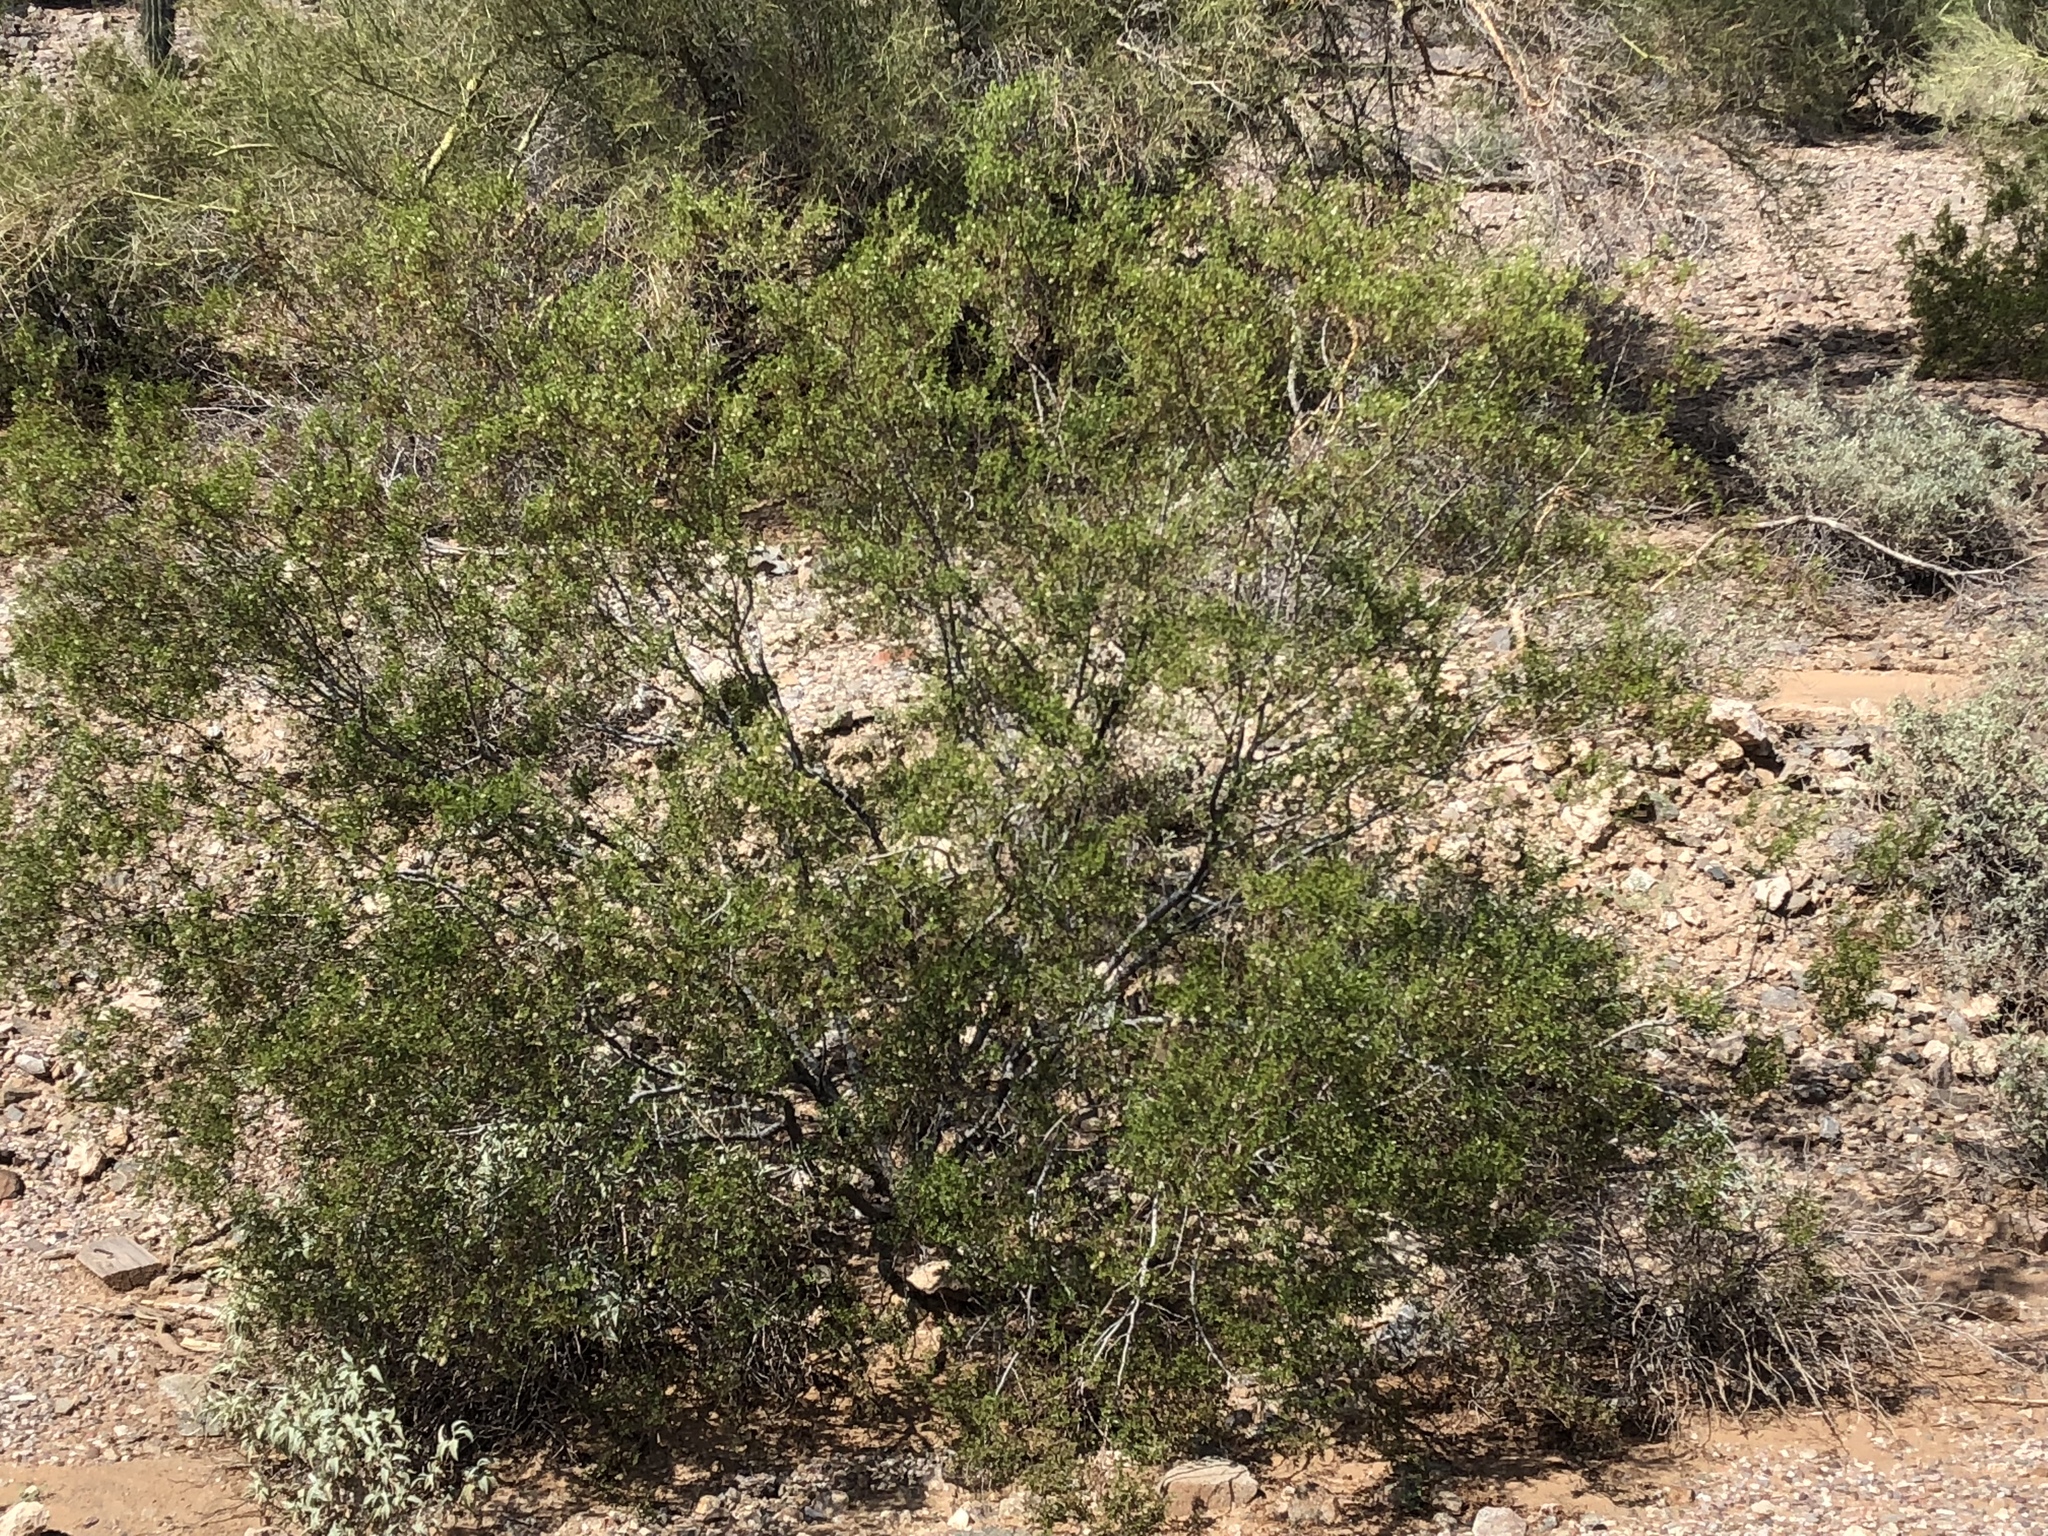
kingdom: Plantae
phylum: Tracheophyta
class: Magnoliopsida
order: Zygophyllales
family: Zygophyllaceae
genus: Larrea
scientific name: Larrea tridentata
